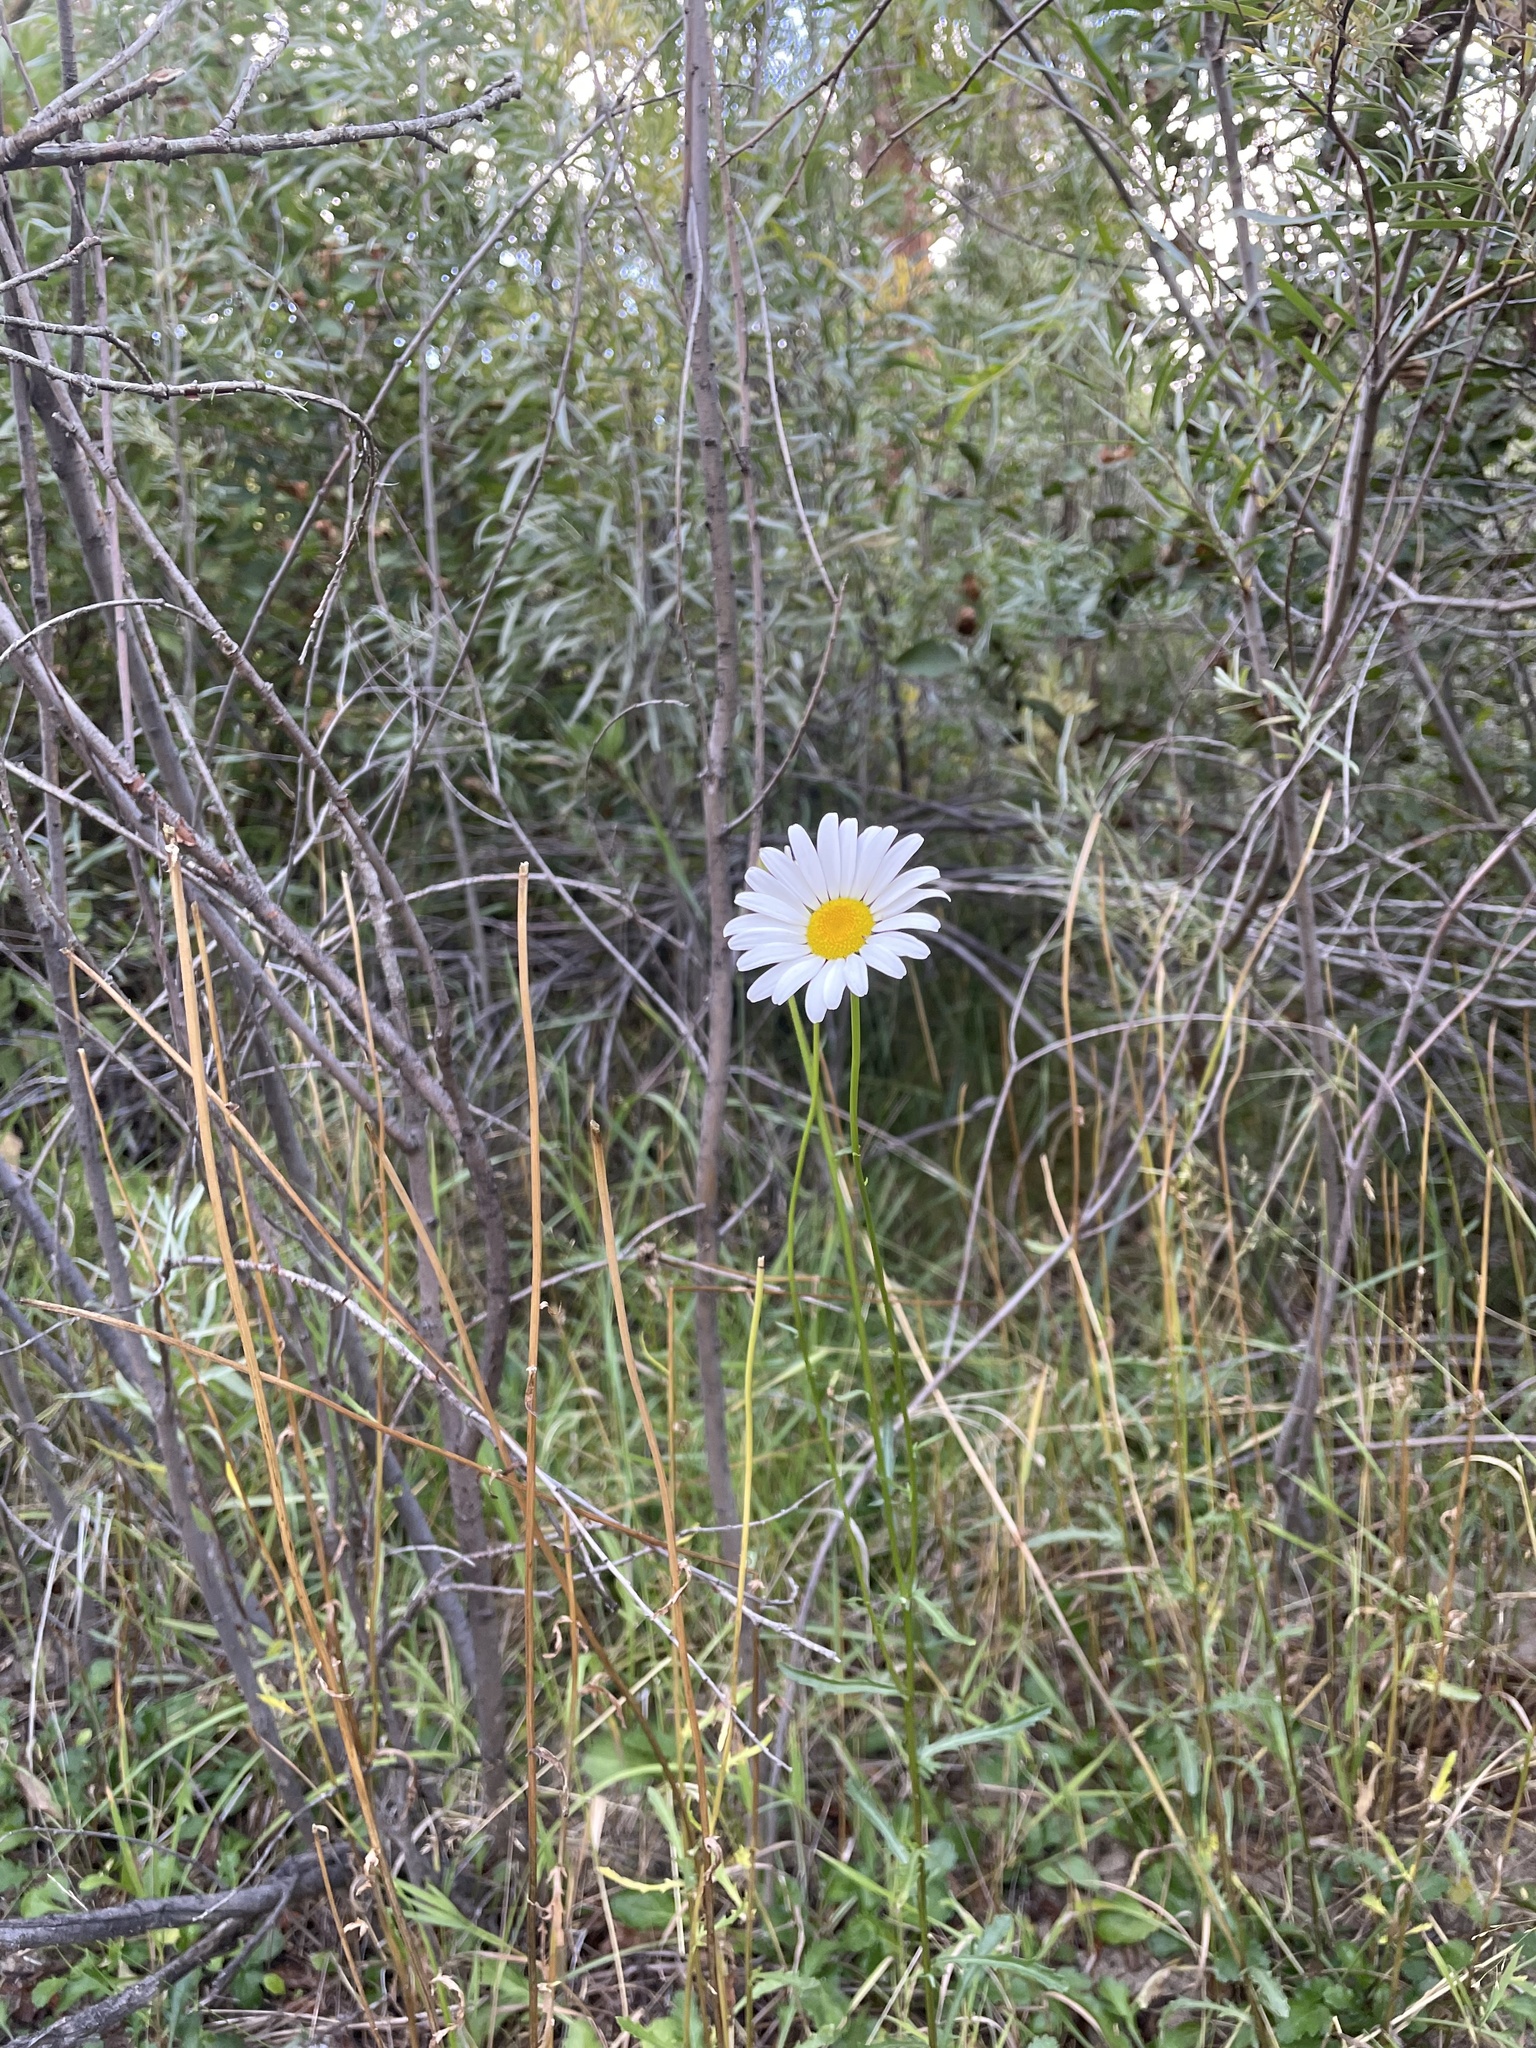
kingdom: Plantae
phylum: Tracheophyta
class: Magnoliopsida
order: Asterales
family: Asteraceae
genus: Leucanthemum
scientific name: Leucanthemum vulgare
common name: Oxeye daisy
